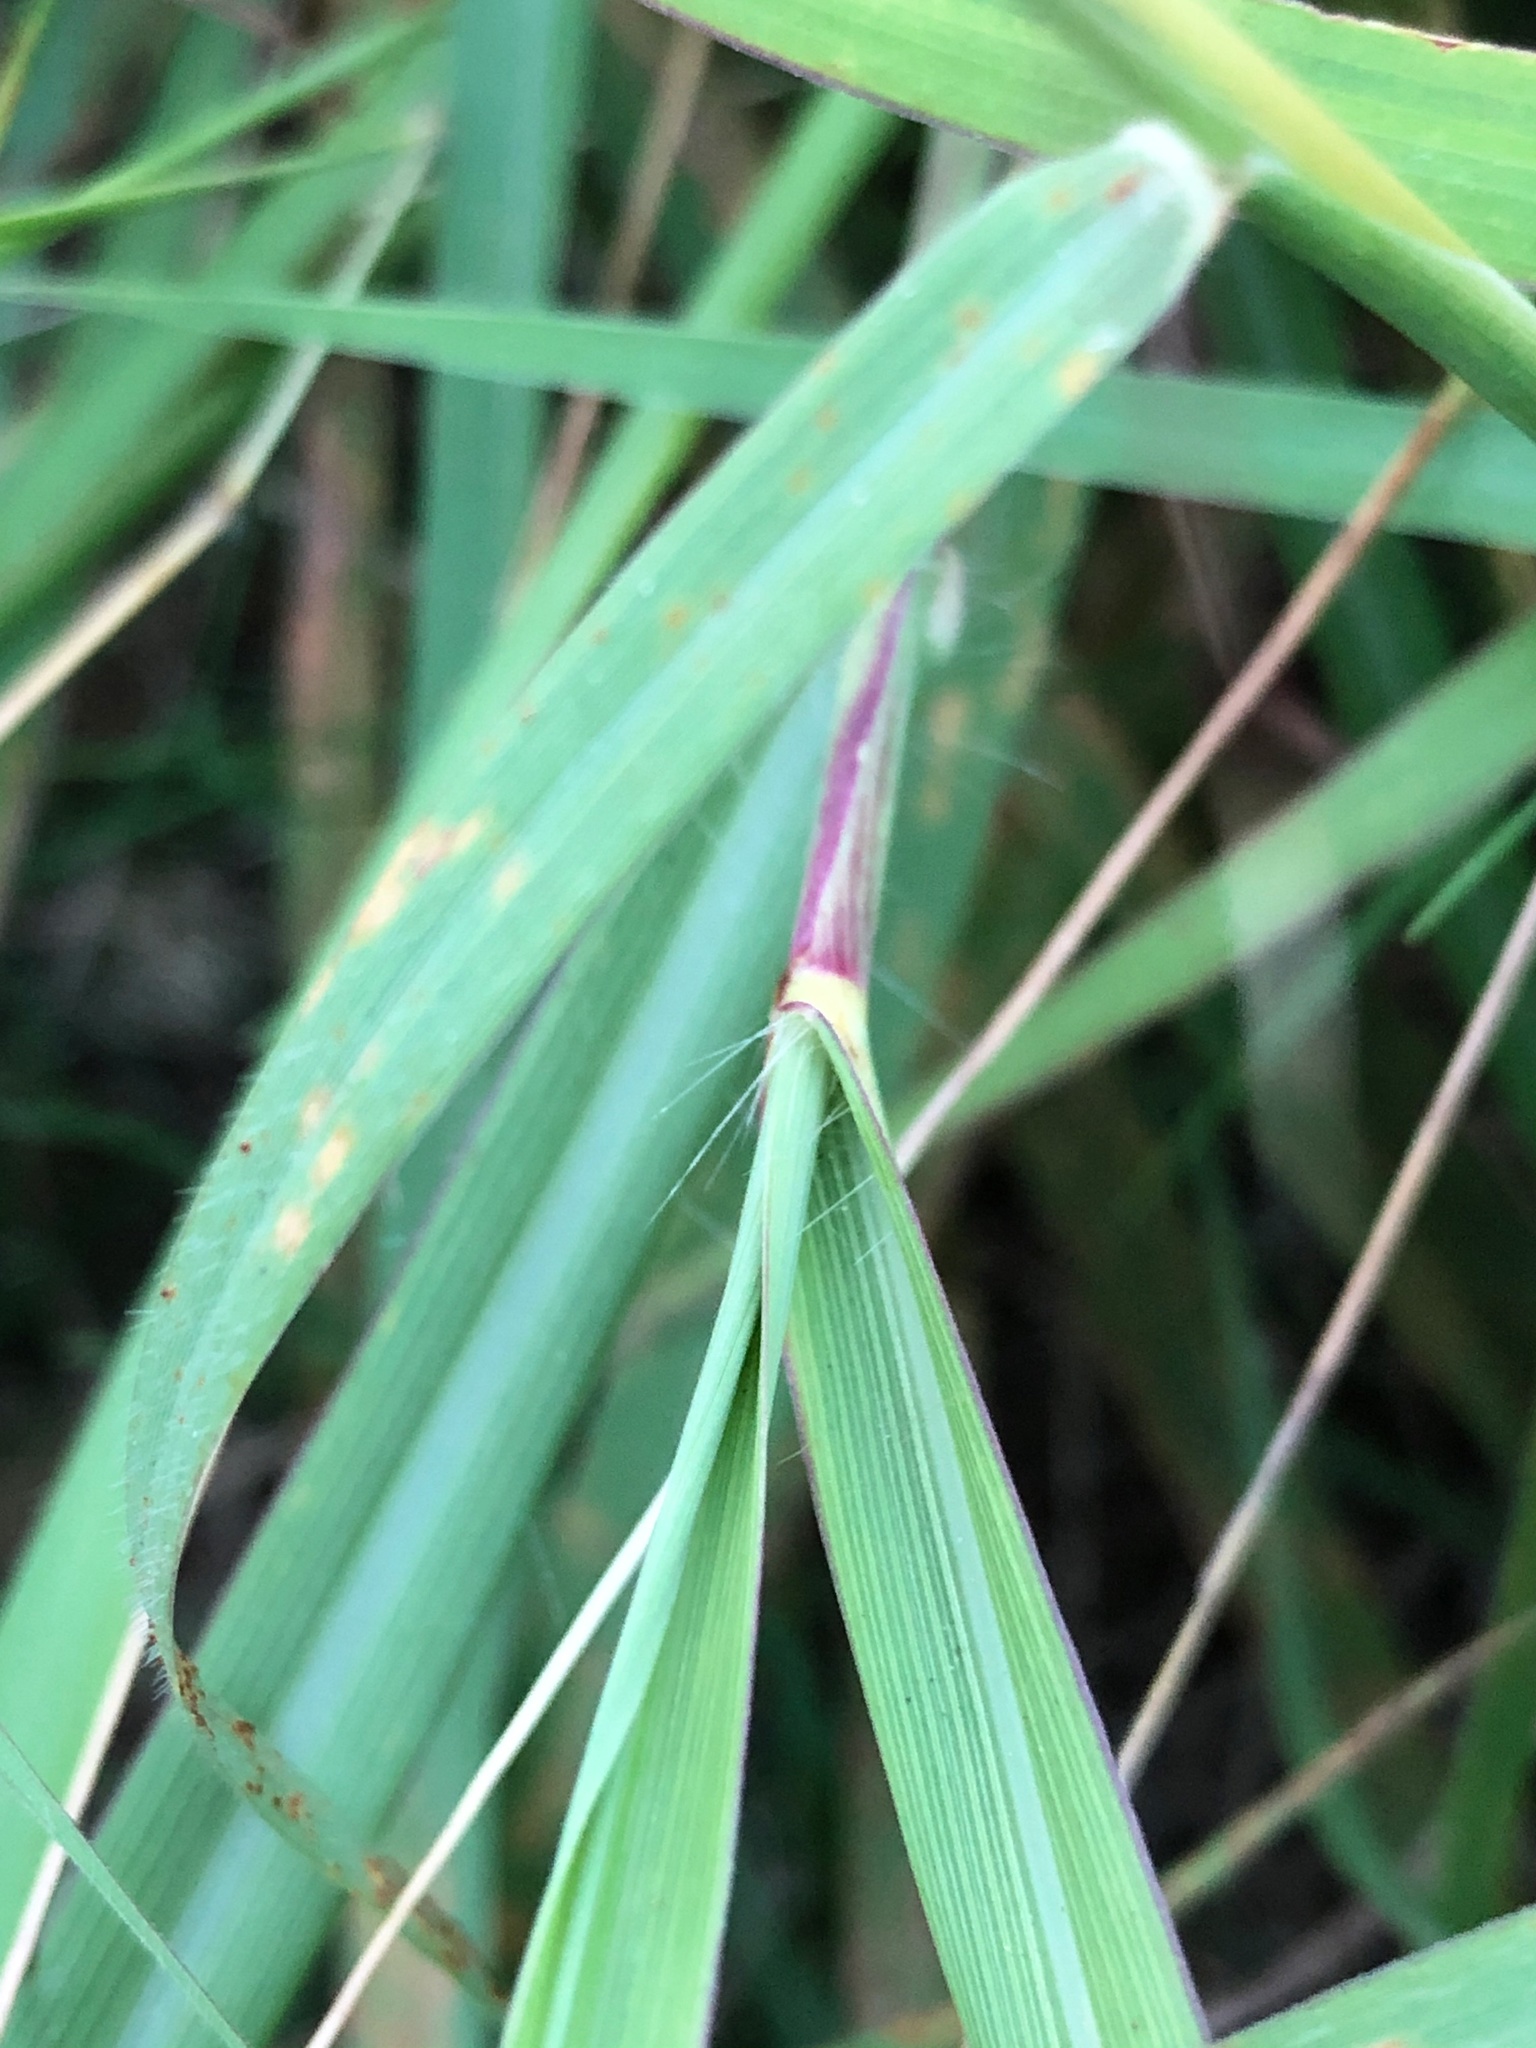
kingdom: Plantae
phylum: Tracheophyta
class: Liliopsida
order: Poales
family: Poaceae
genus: Bothriochloa
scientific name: Bothriochloa bladhii
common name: Caucasian bluestem
